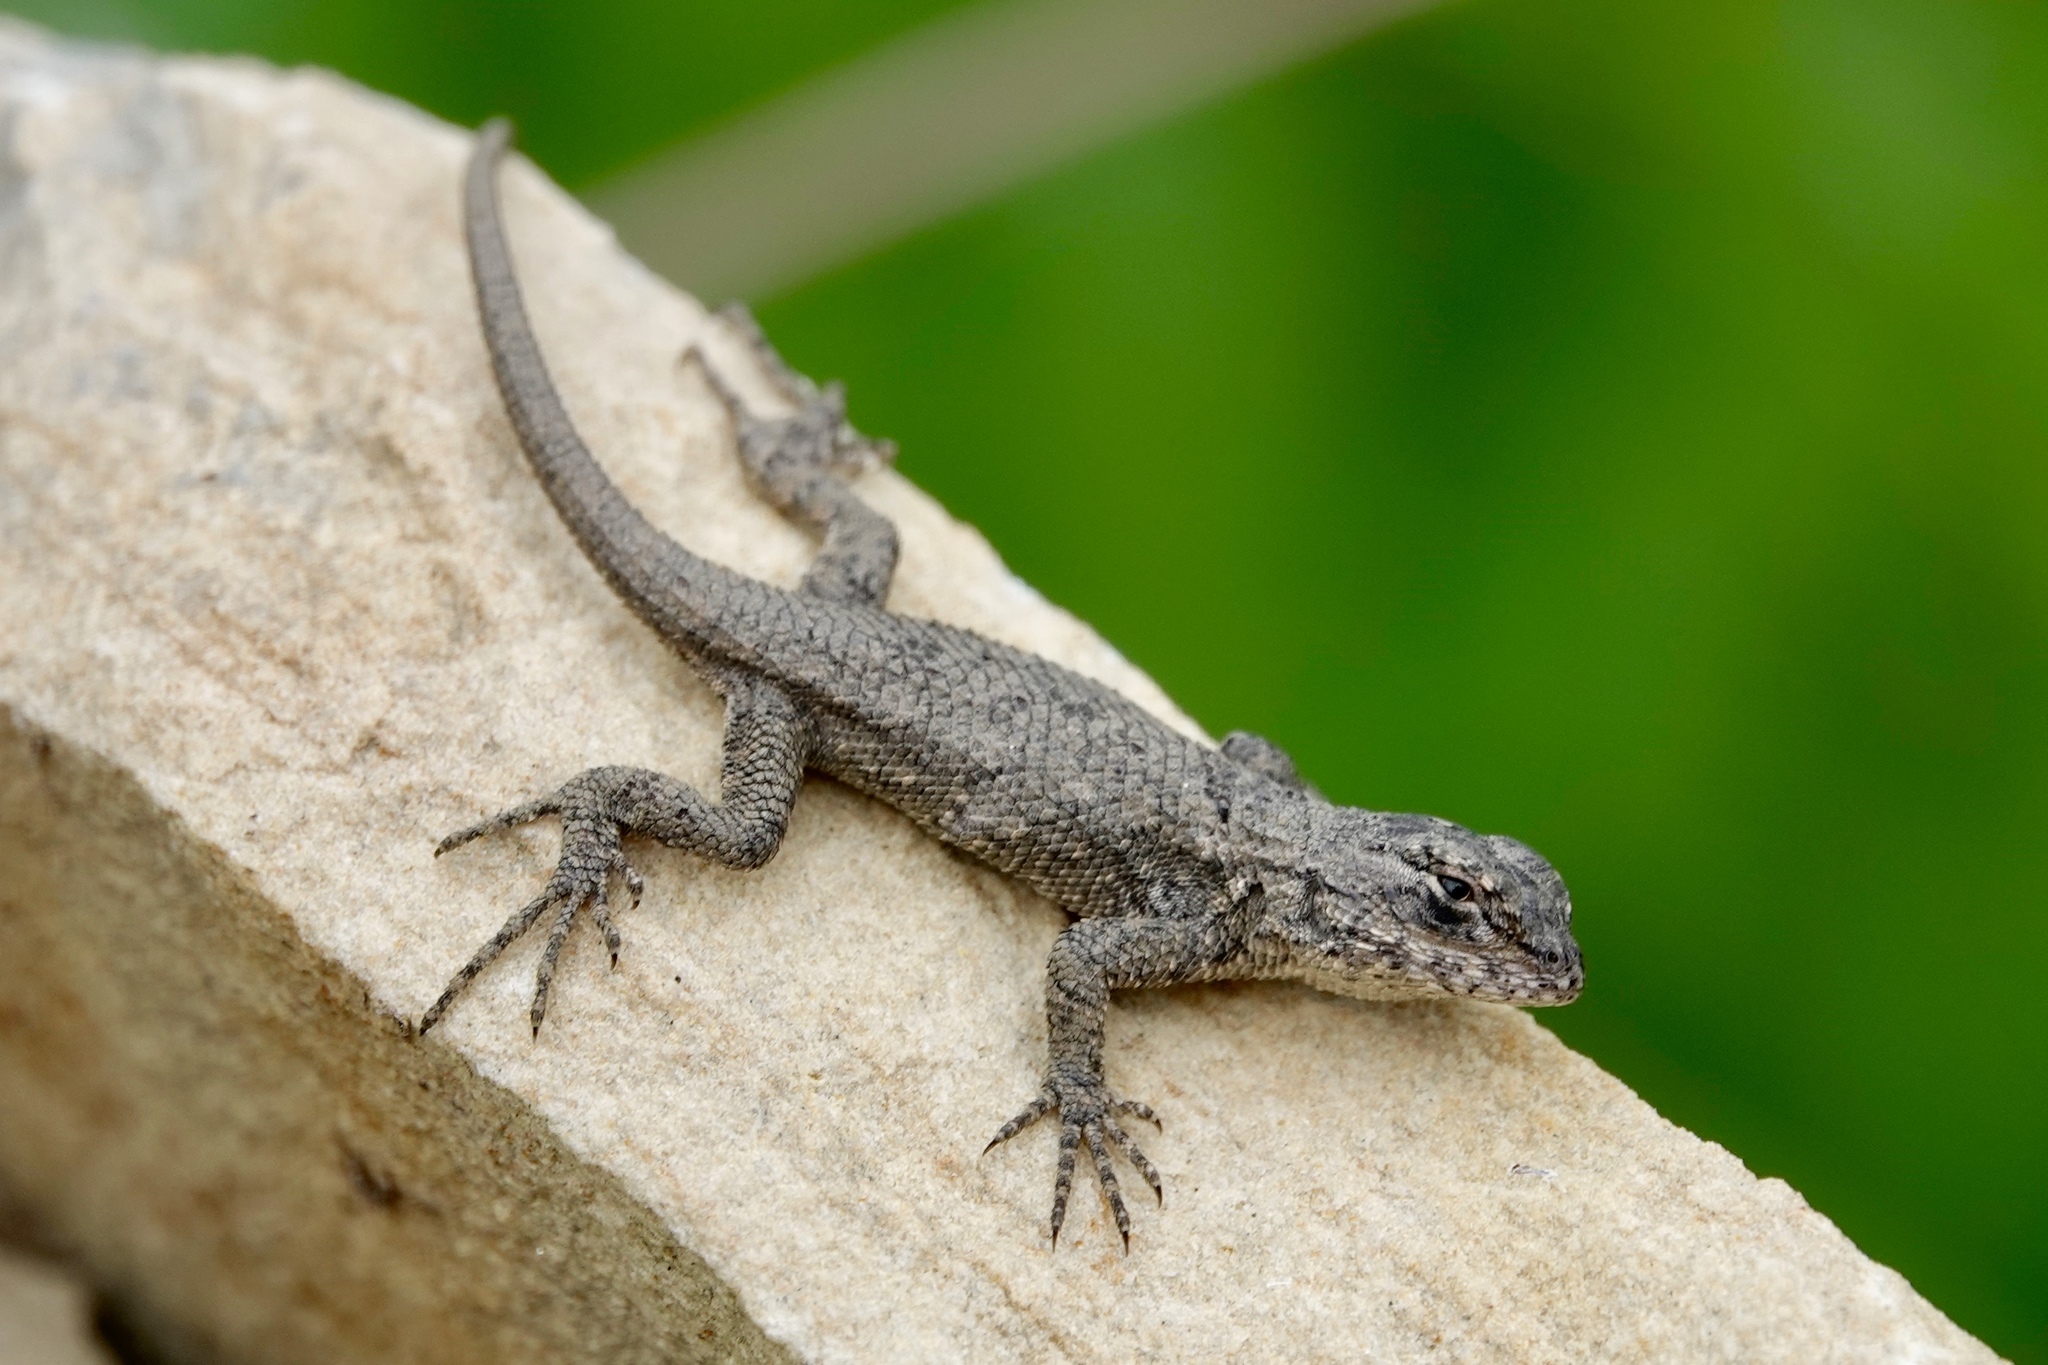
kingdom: Animalia
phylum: Chordata
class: Squamata
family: Phrynosomatidae
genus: Sceloporus
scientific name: Sceloporus undulatus
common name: Eastern fence lizard
